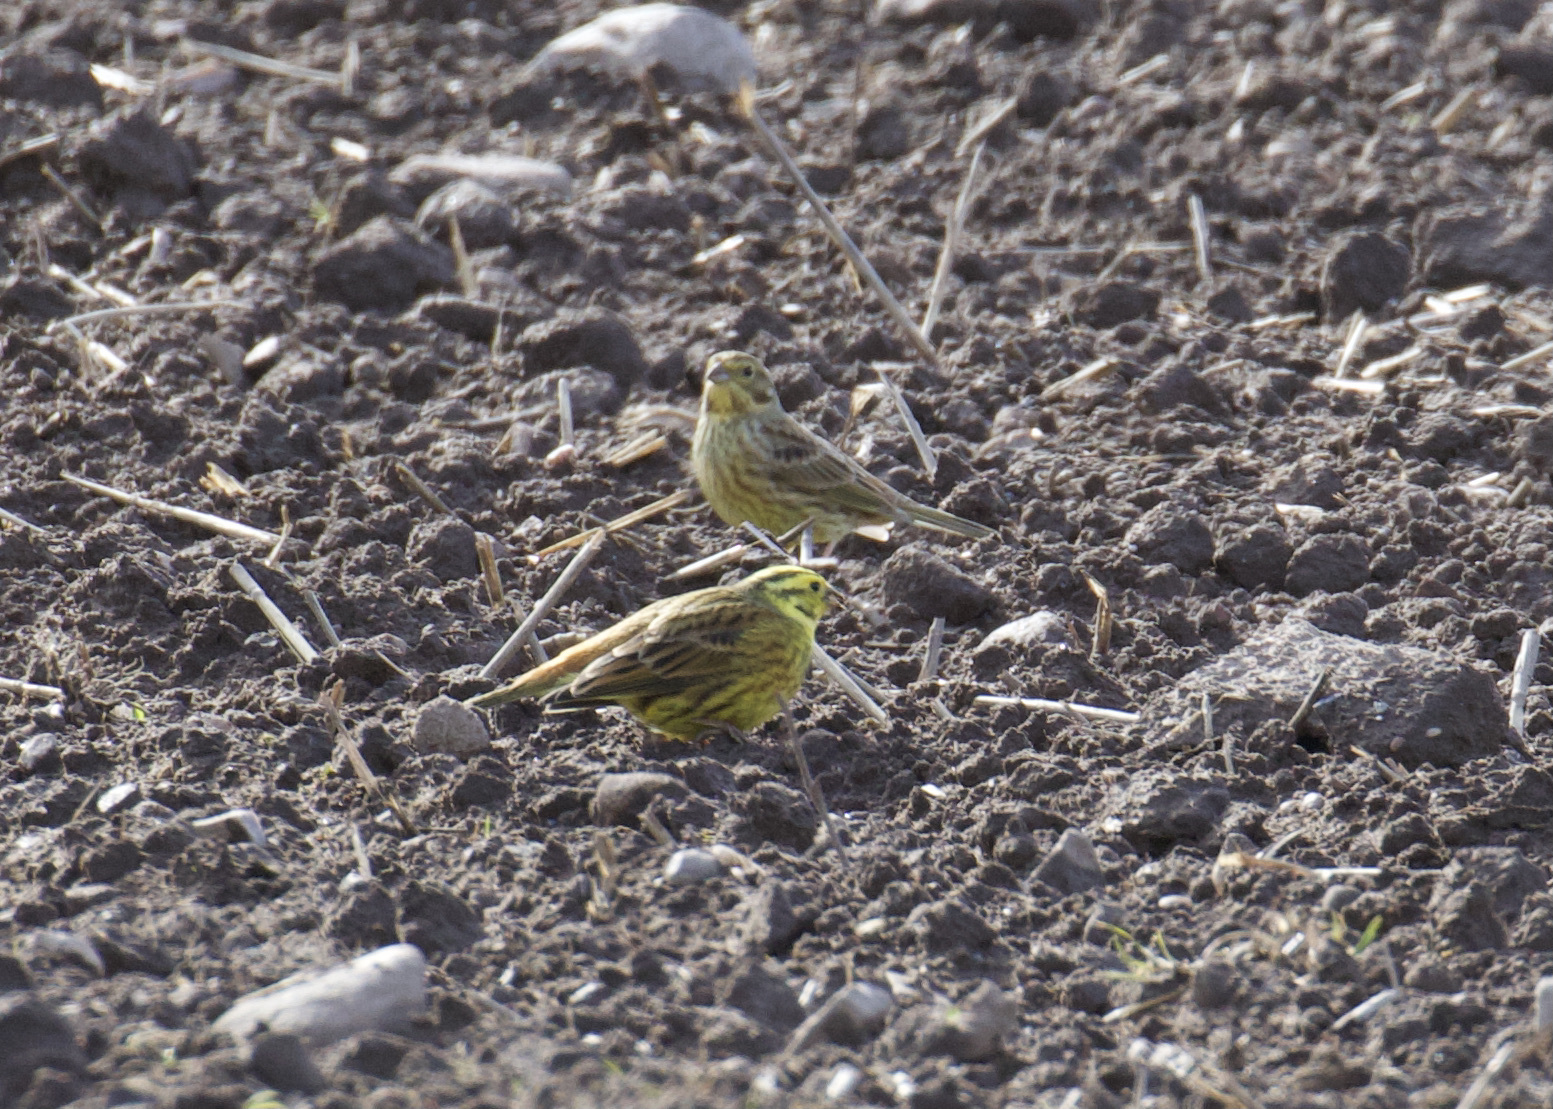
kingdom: Animalia
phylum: Chordata
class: Aves
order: Passeriformes
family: Emberizidae
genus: Emberiza
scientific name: Emberiza citrinella
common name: Yellowhammer
